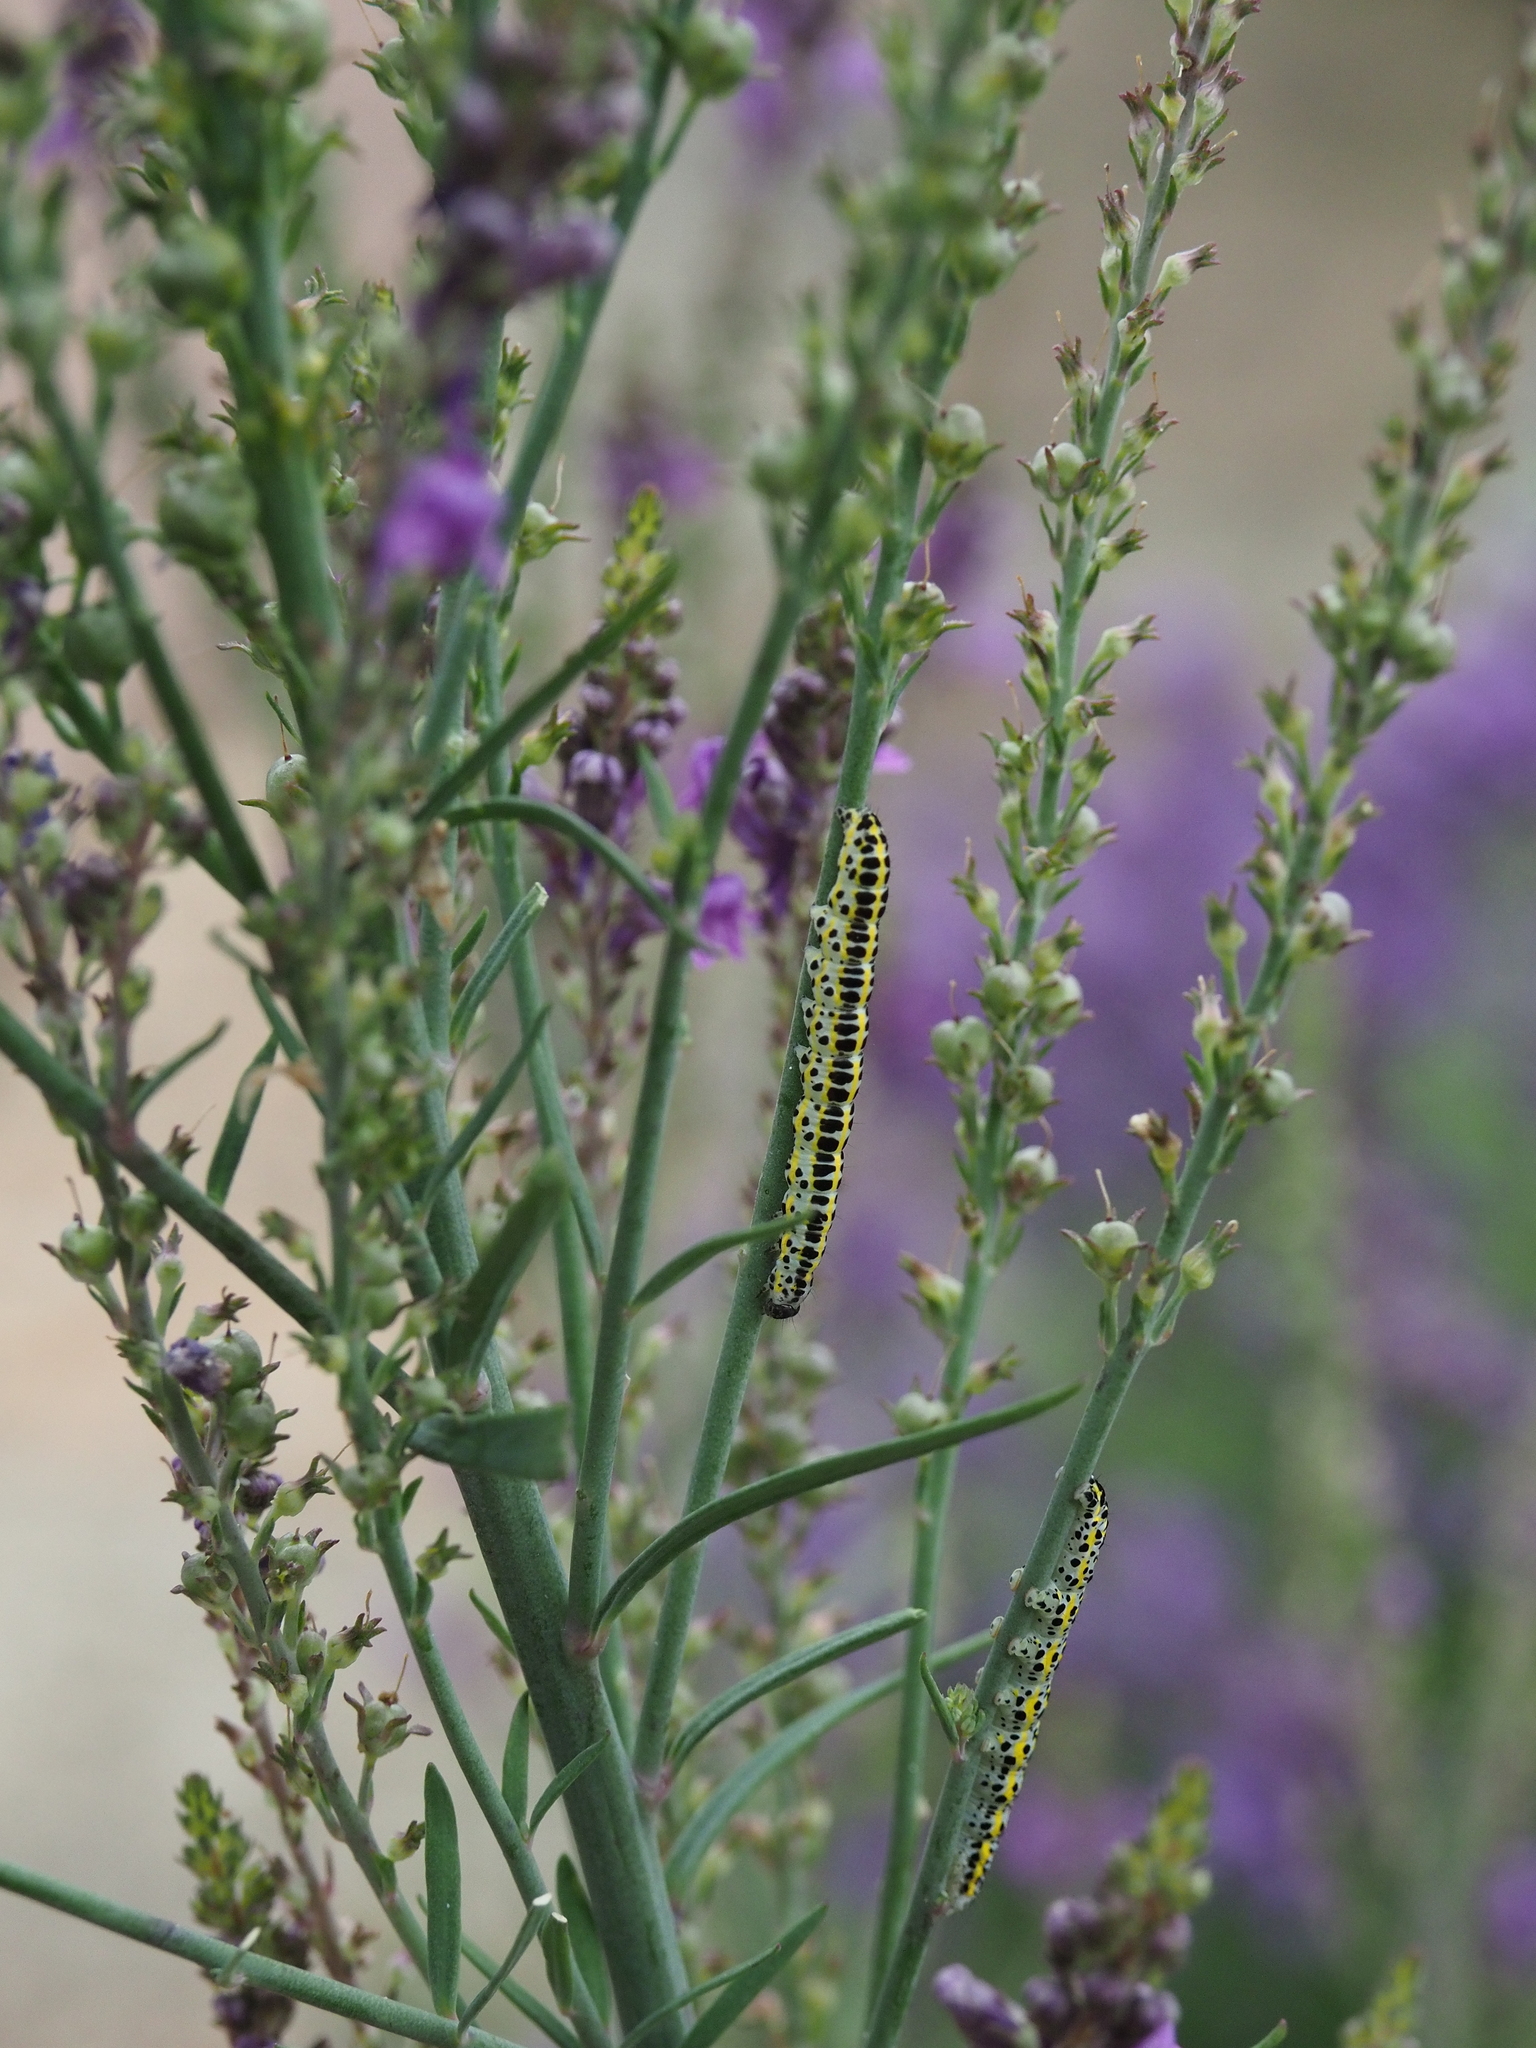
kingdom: Animalia
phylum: Arthropoda
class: Insecta
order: Lepidoptera
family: Noctuidae
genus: Calophasia
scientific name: Calophasia lunula
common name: Toadflax brocade
